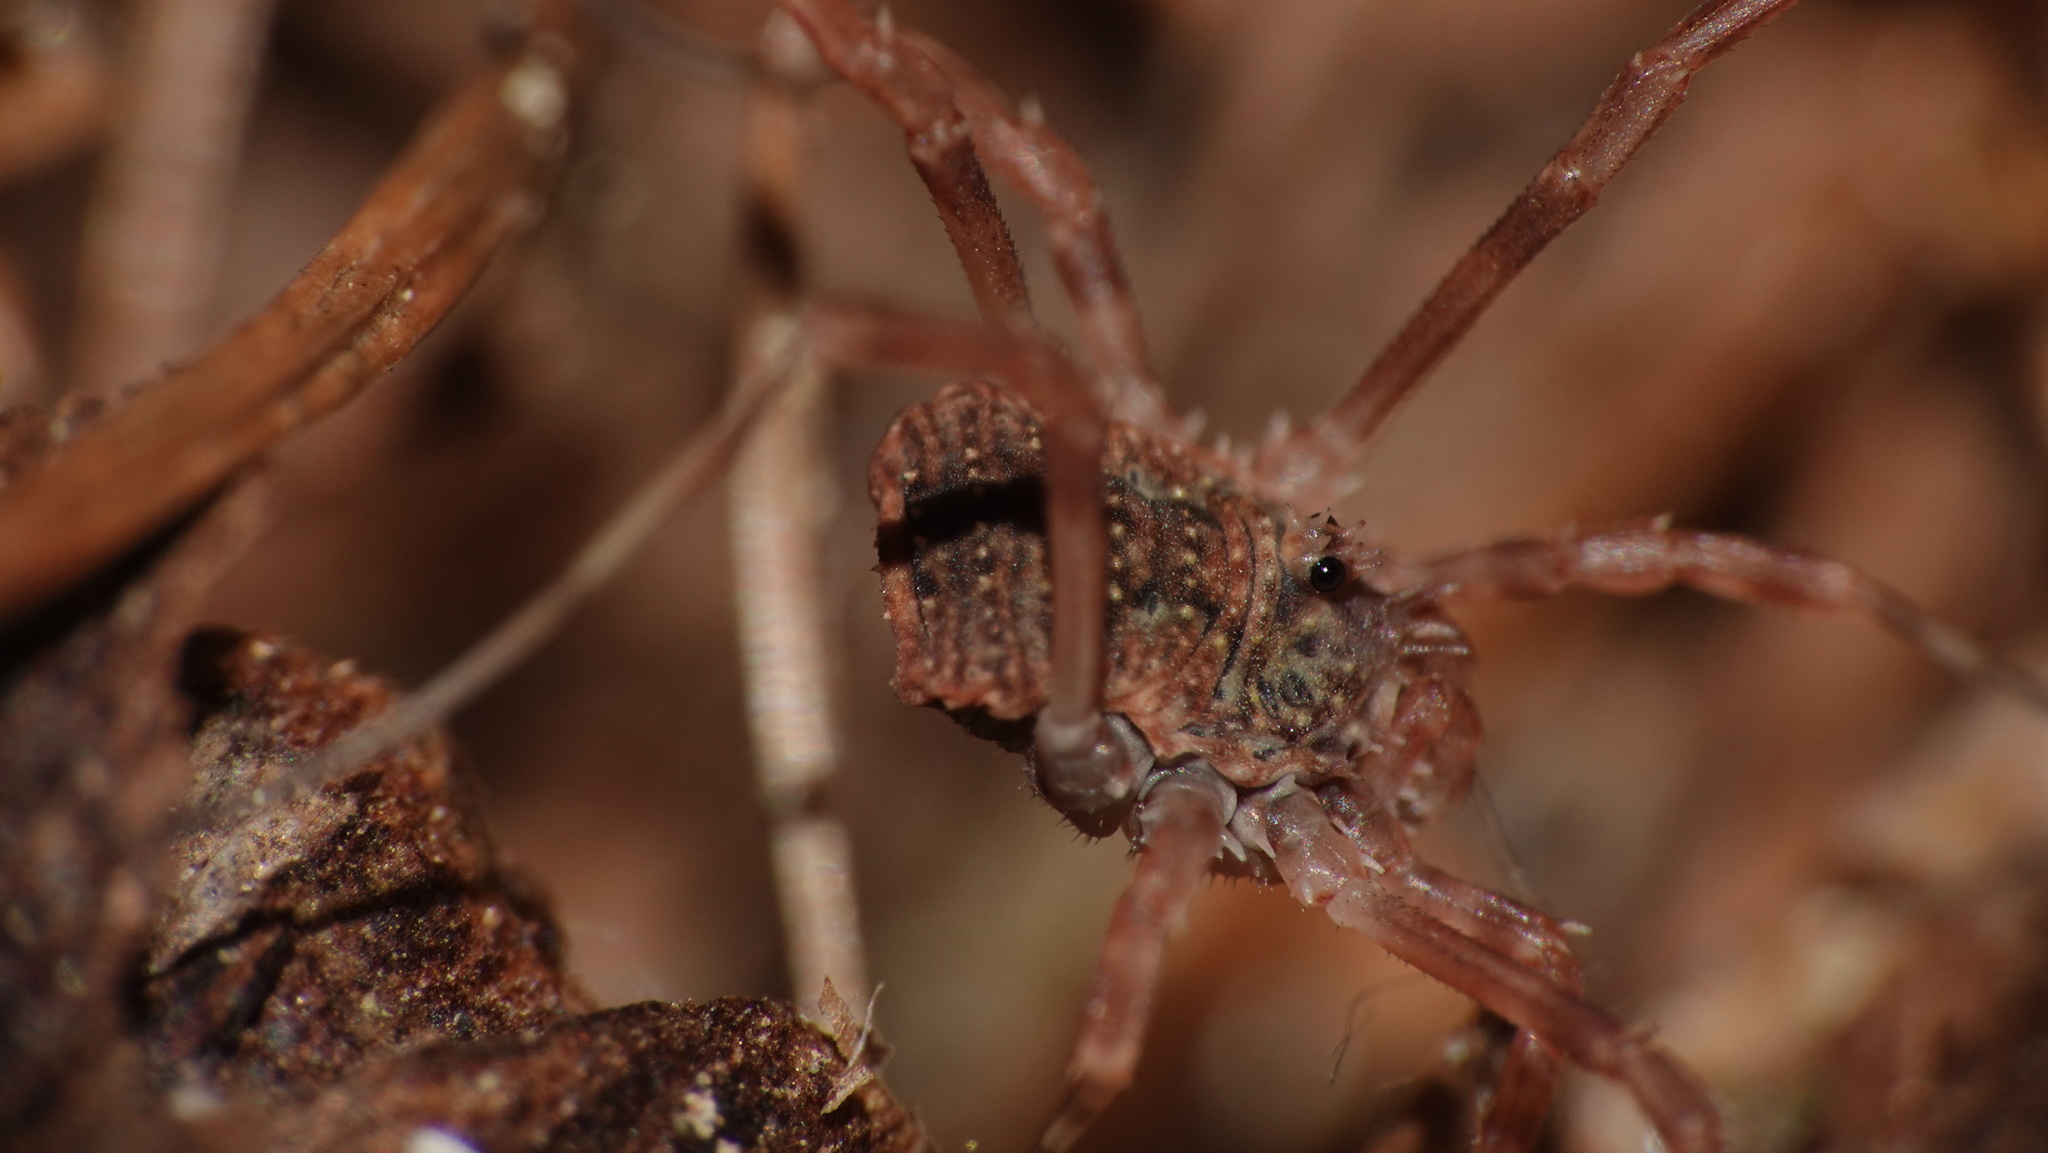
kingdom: Animalia
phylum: Arthropoda
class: Arachnida
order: Opiliones
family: Phalangiidae
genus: Odiellus
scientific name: Odiellus granulatus
